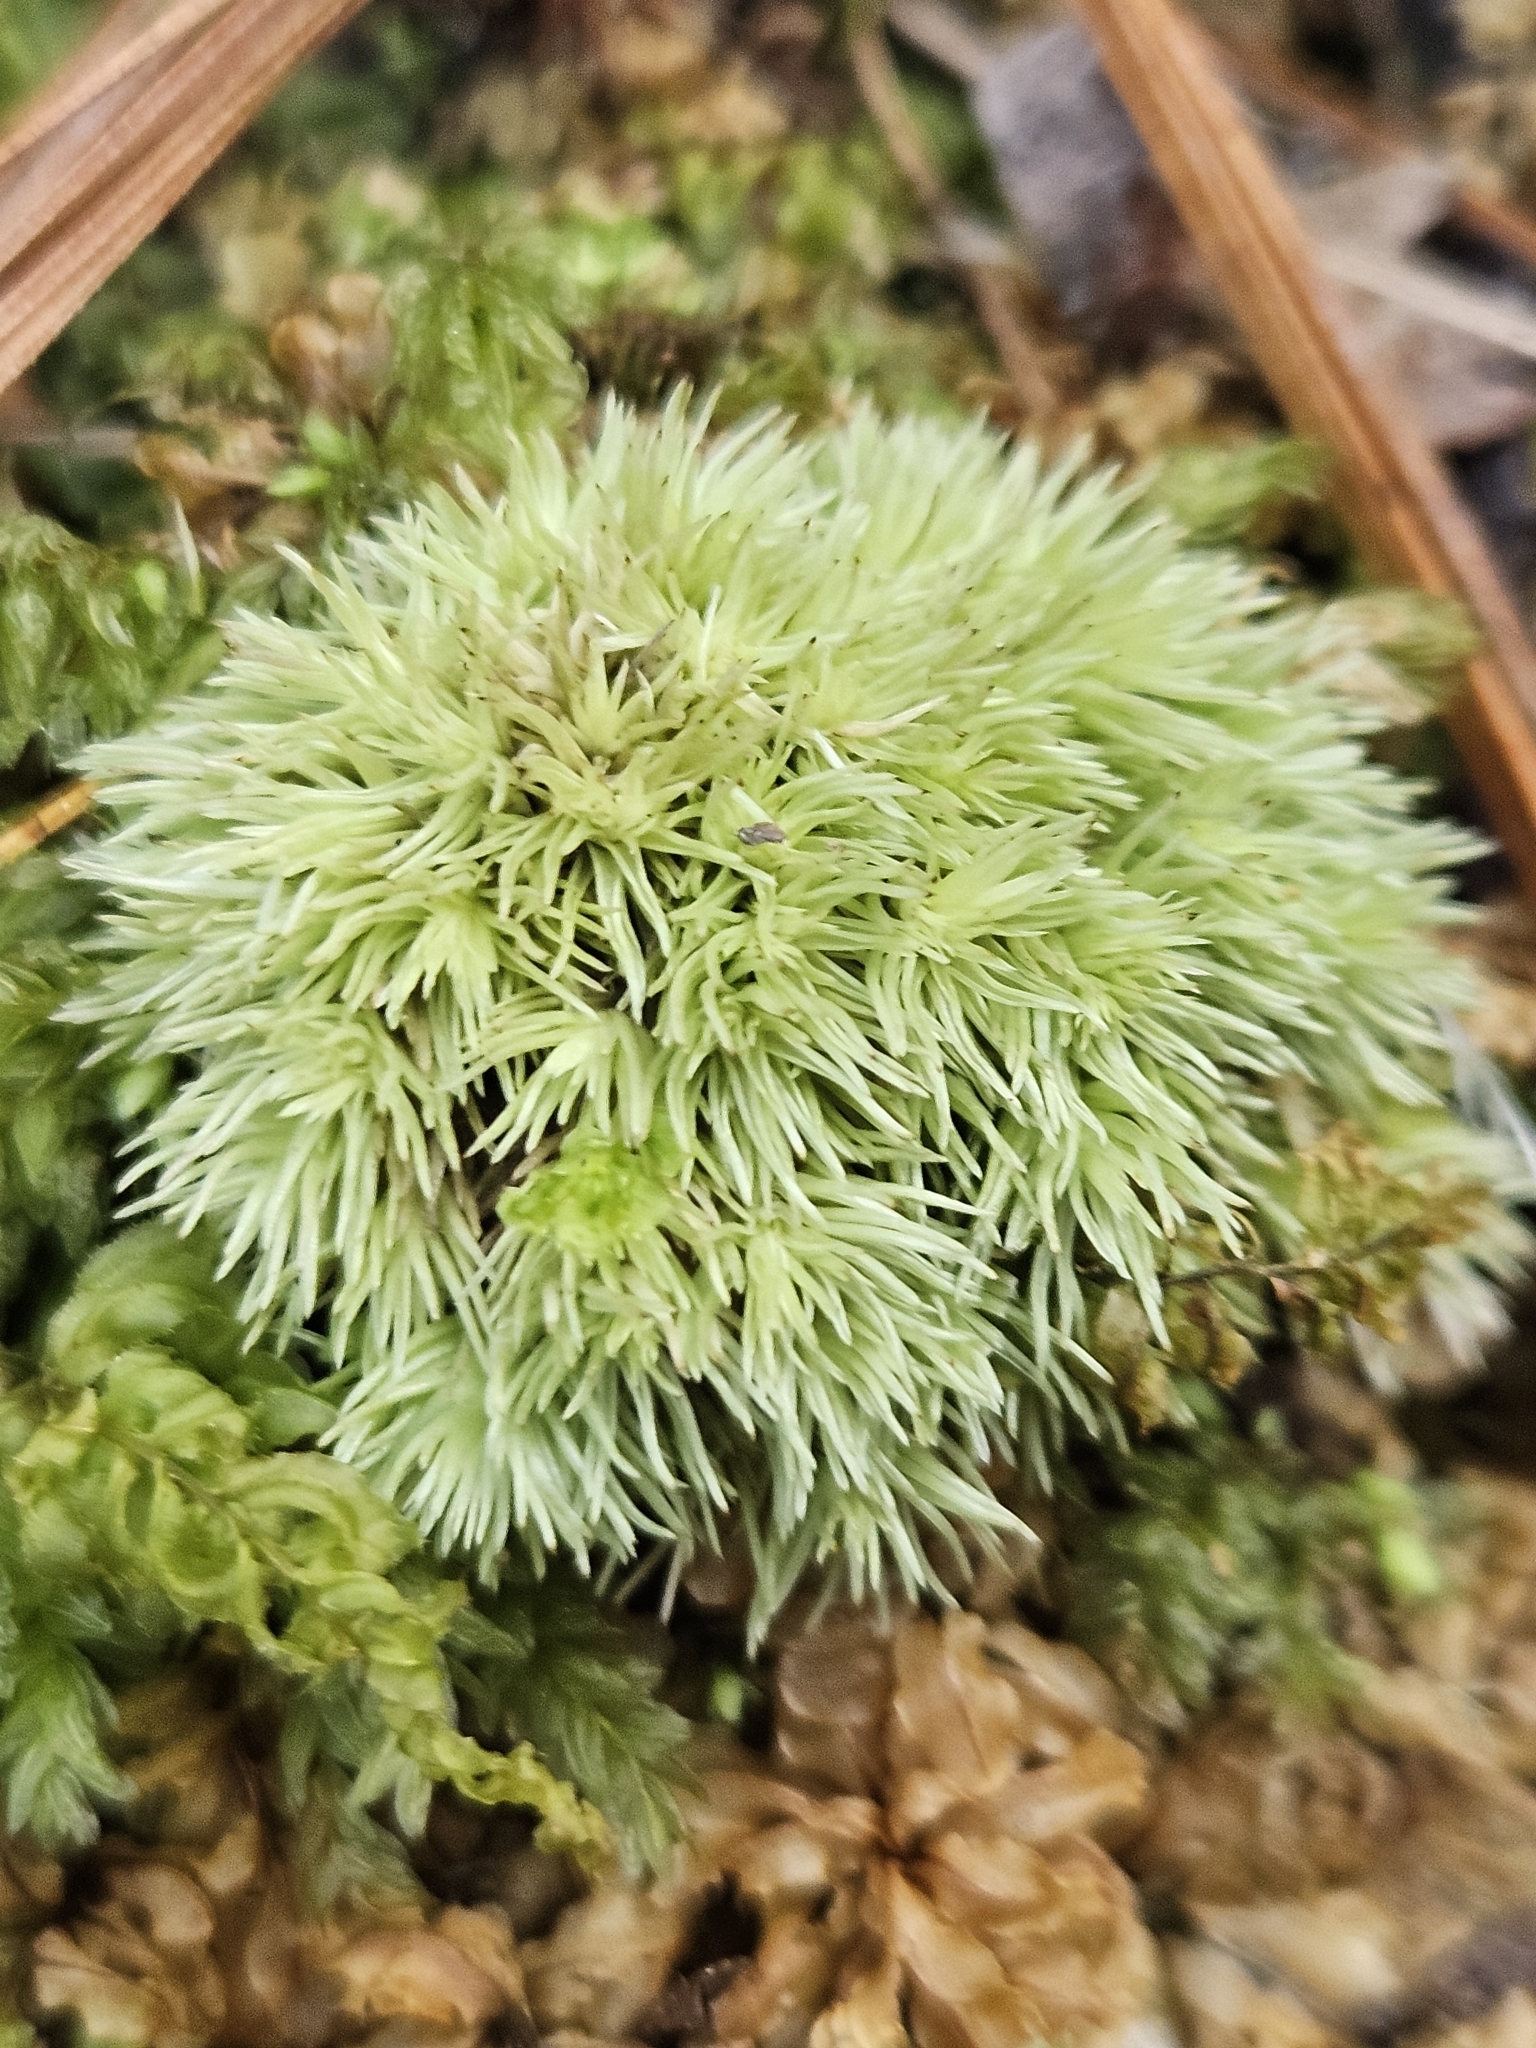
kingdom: Plantae
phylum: Bryophyta
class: Bryopsida
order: Dicranales
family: Leucobryaceae
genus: Leucobryum
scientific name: Leucobryum glaucum
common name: Large white-moss
